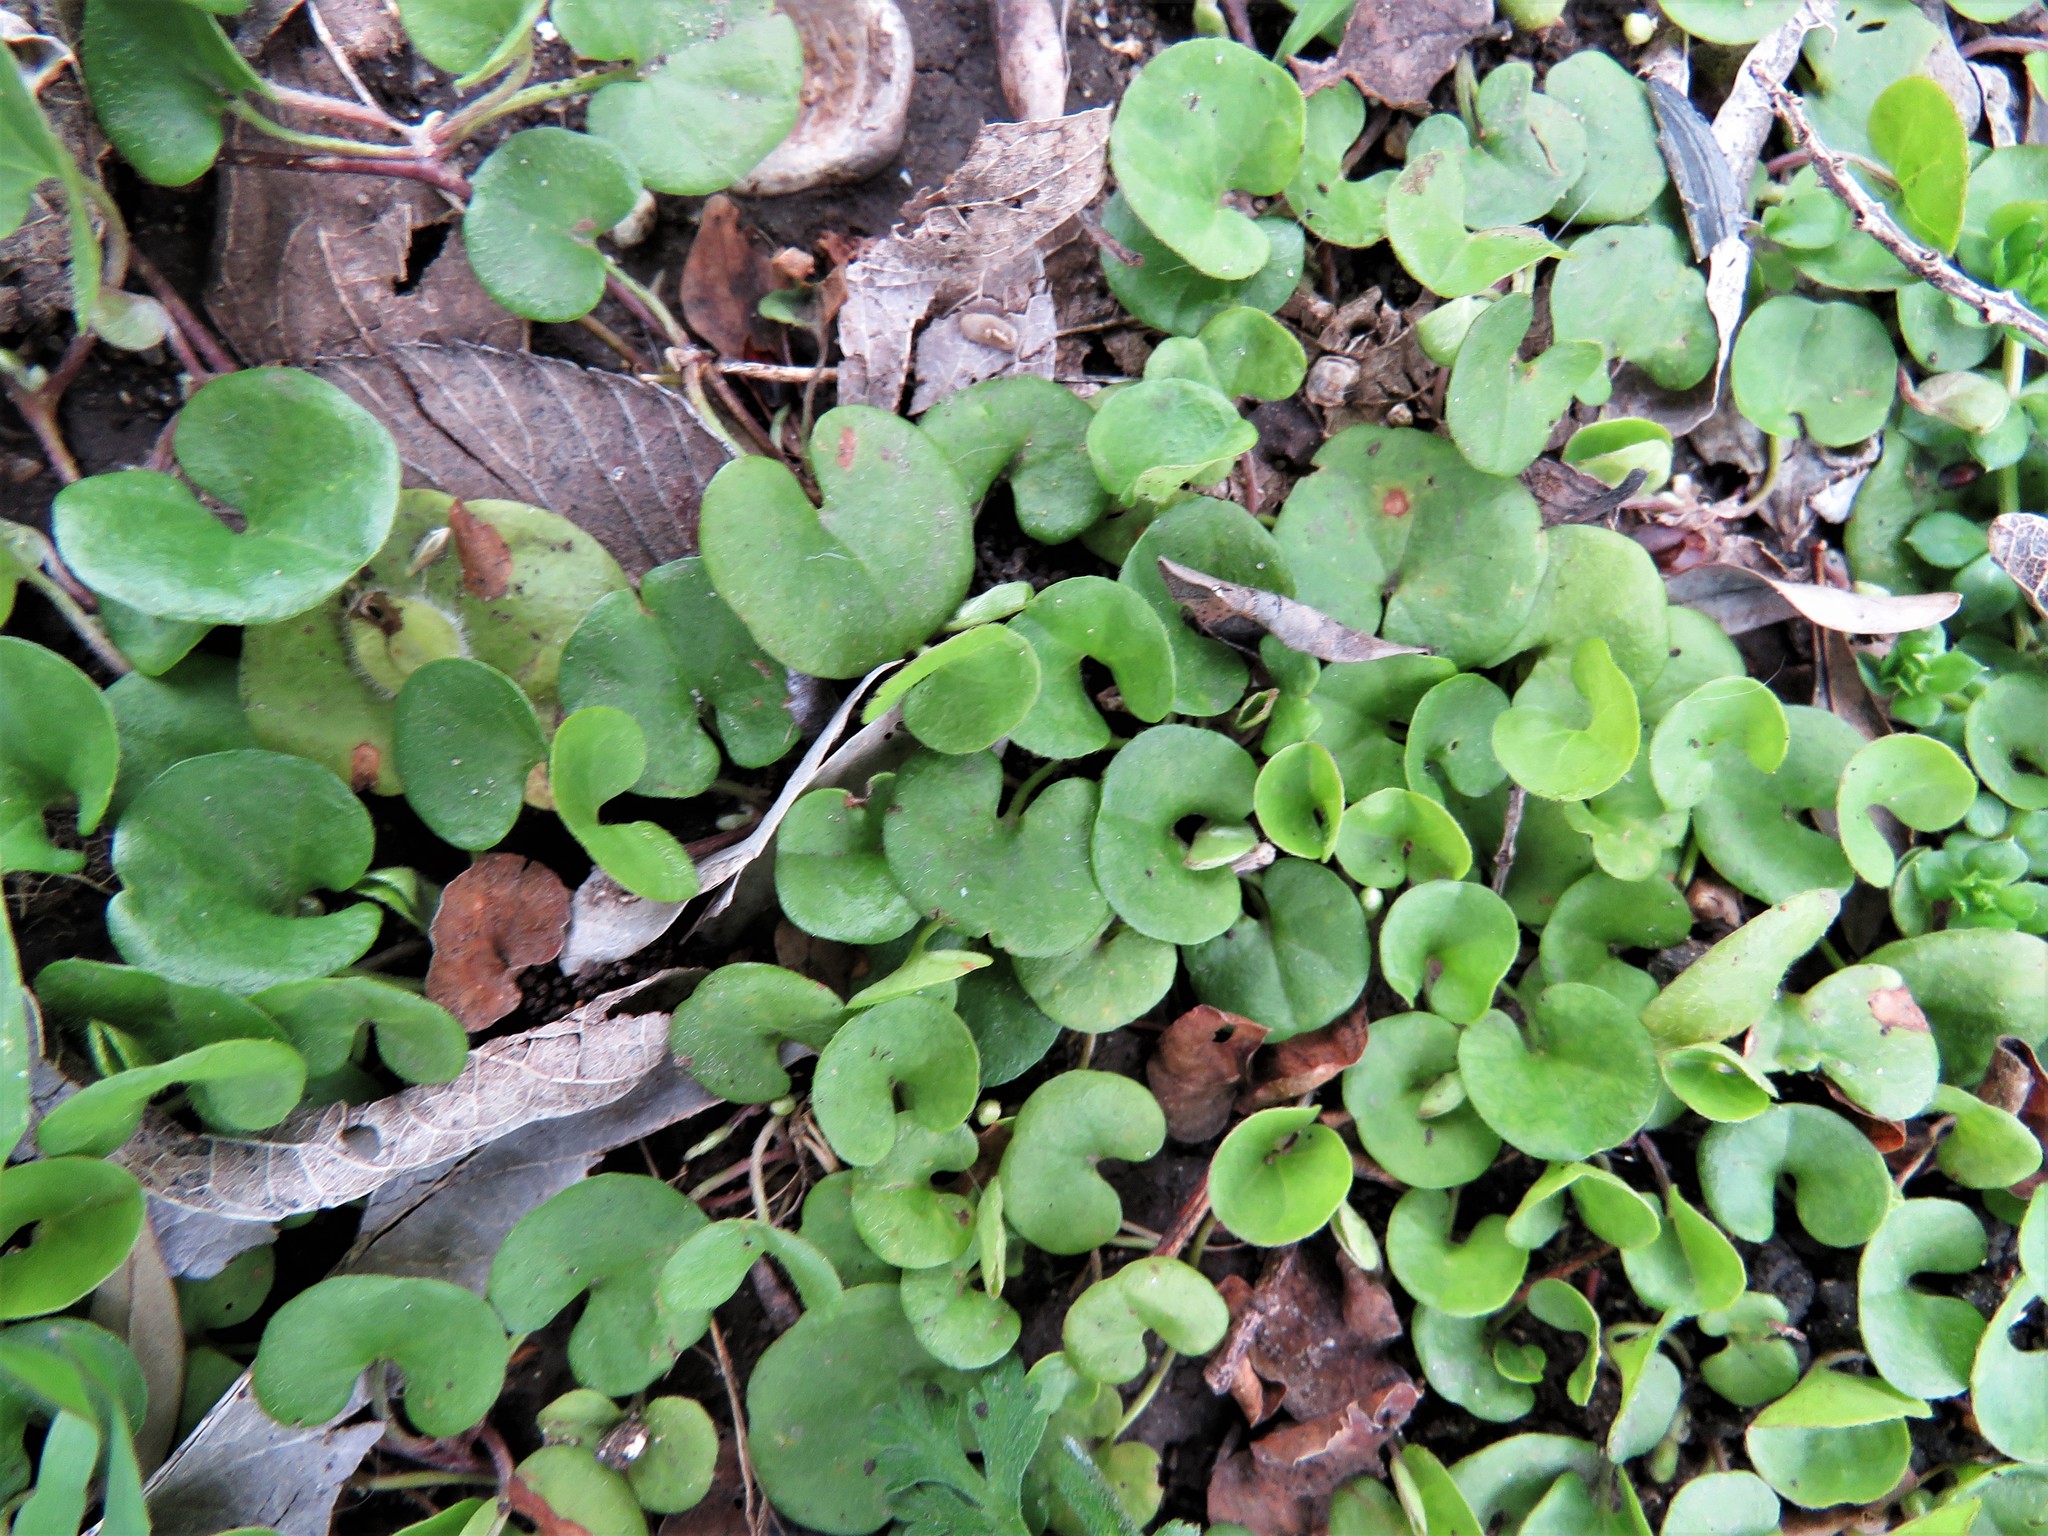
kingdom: Plantae
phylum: Tracheophyta
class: Magnoliopsida
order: Solanales
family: Convolvulaceae
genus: Dichondra
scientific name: Dichondra carolinensis
